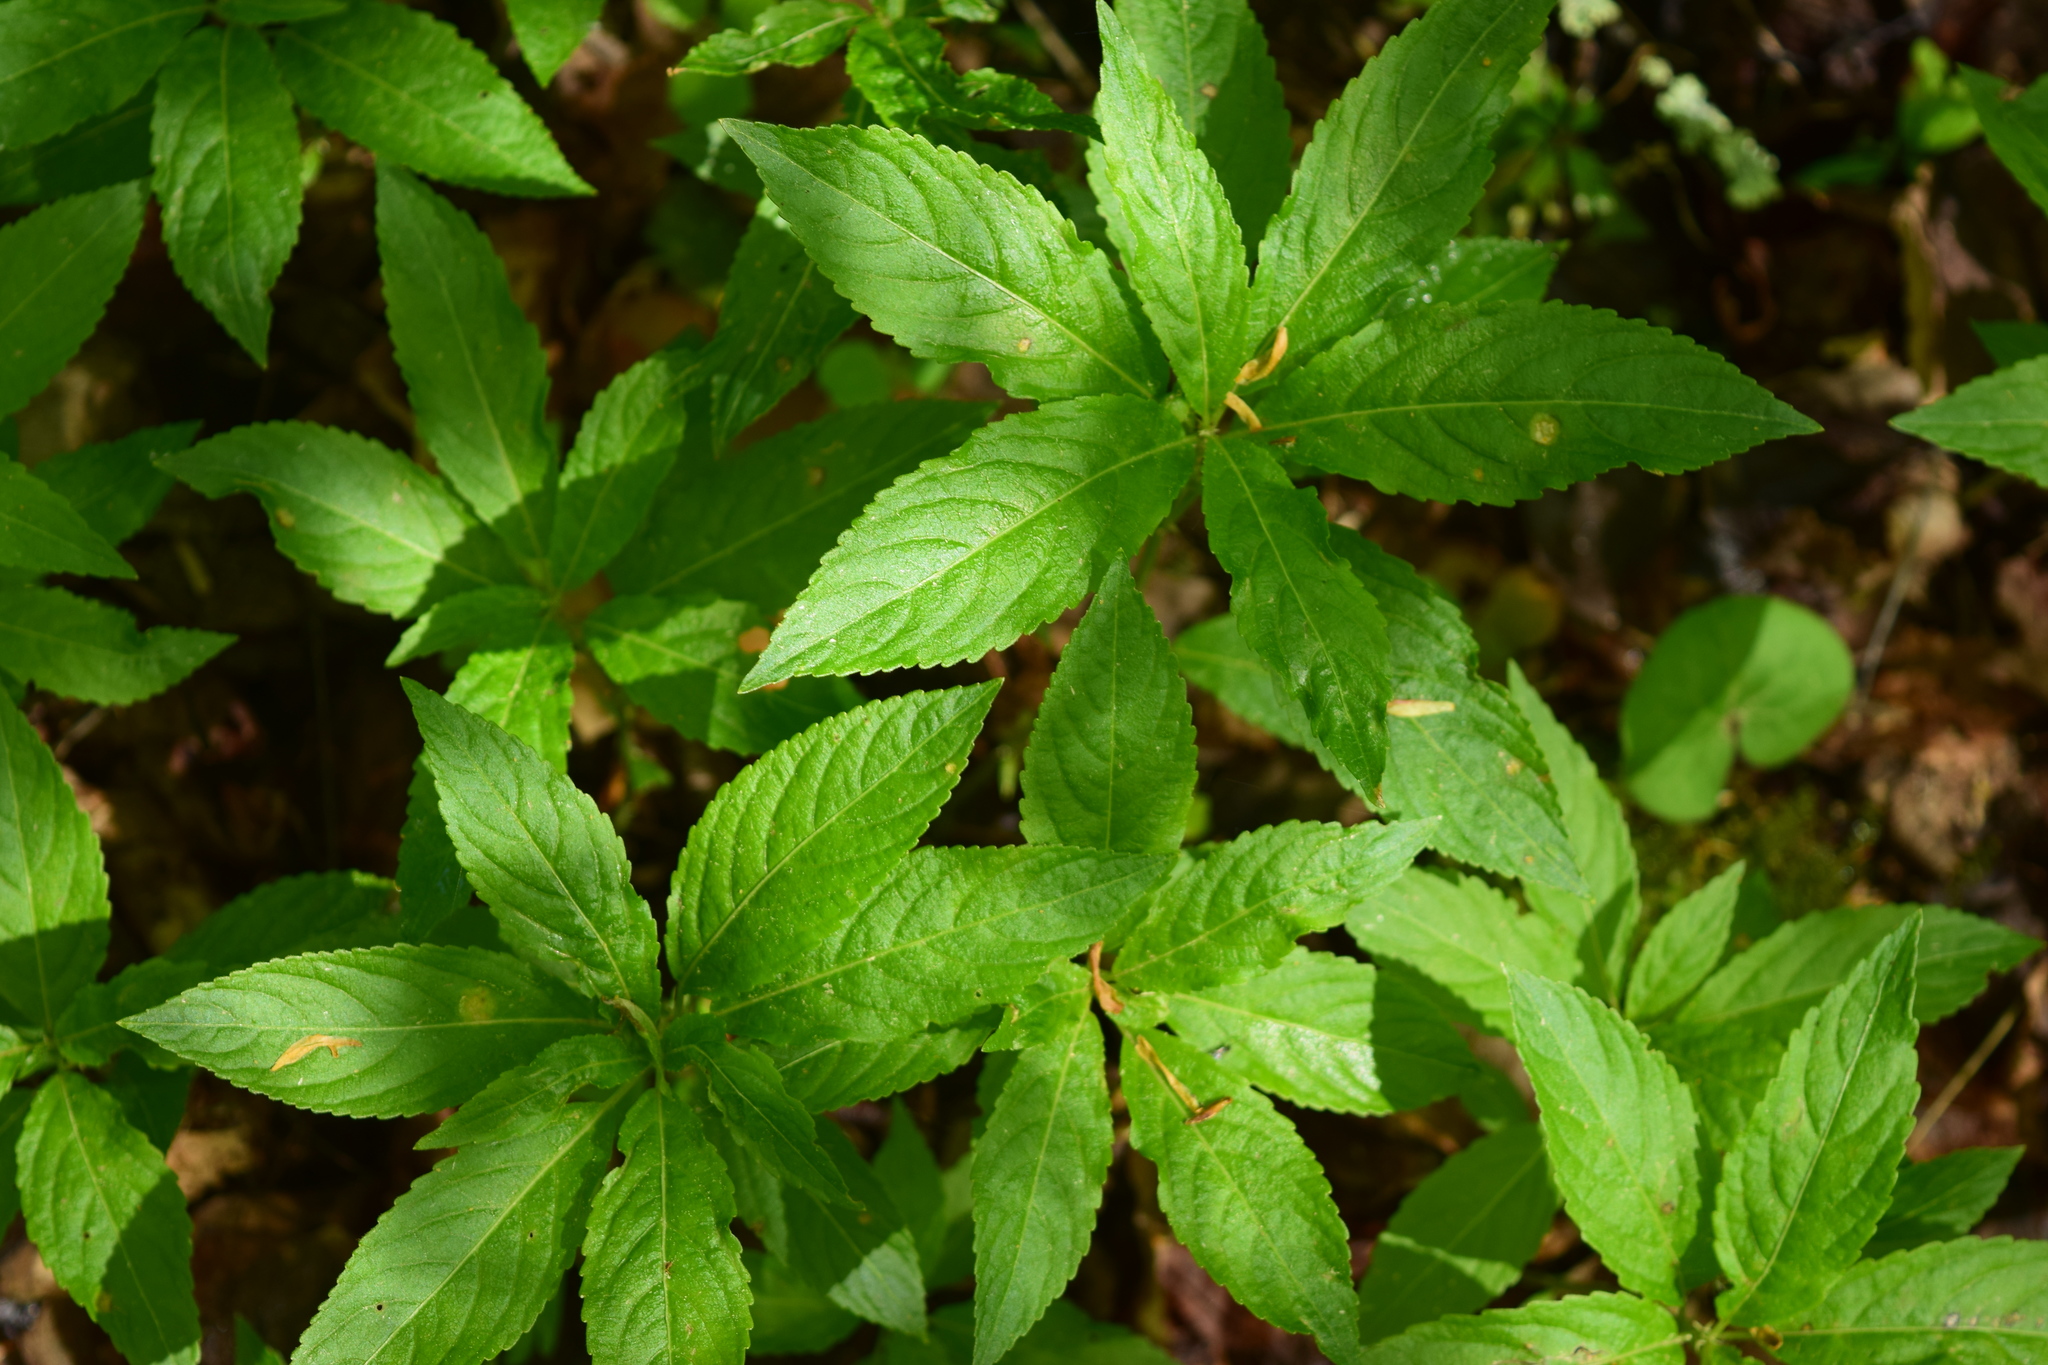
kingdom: Plantae
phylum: Tracheophyta
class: Magnoliopsida
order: Malpighiales
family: Euphorbiaceae
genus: Mercurialis
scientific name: Mercurialis perennis
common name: Dog mercury
